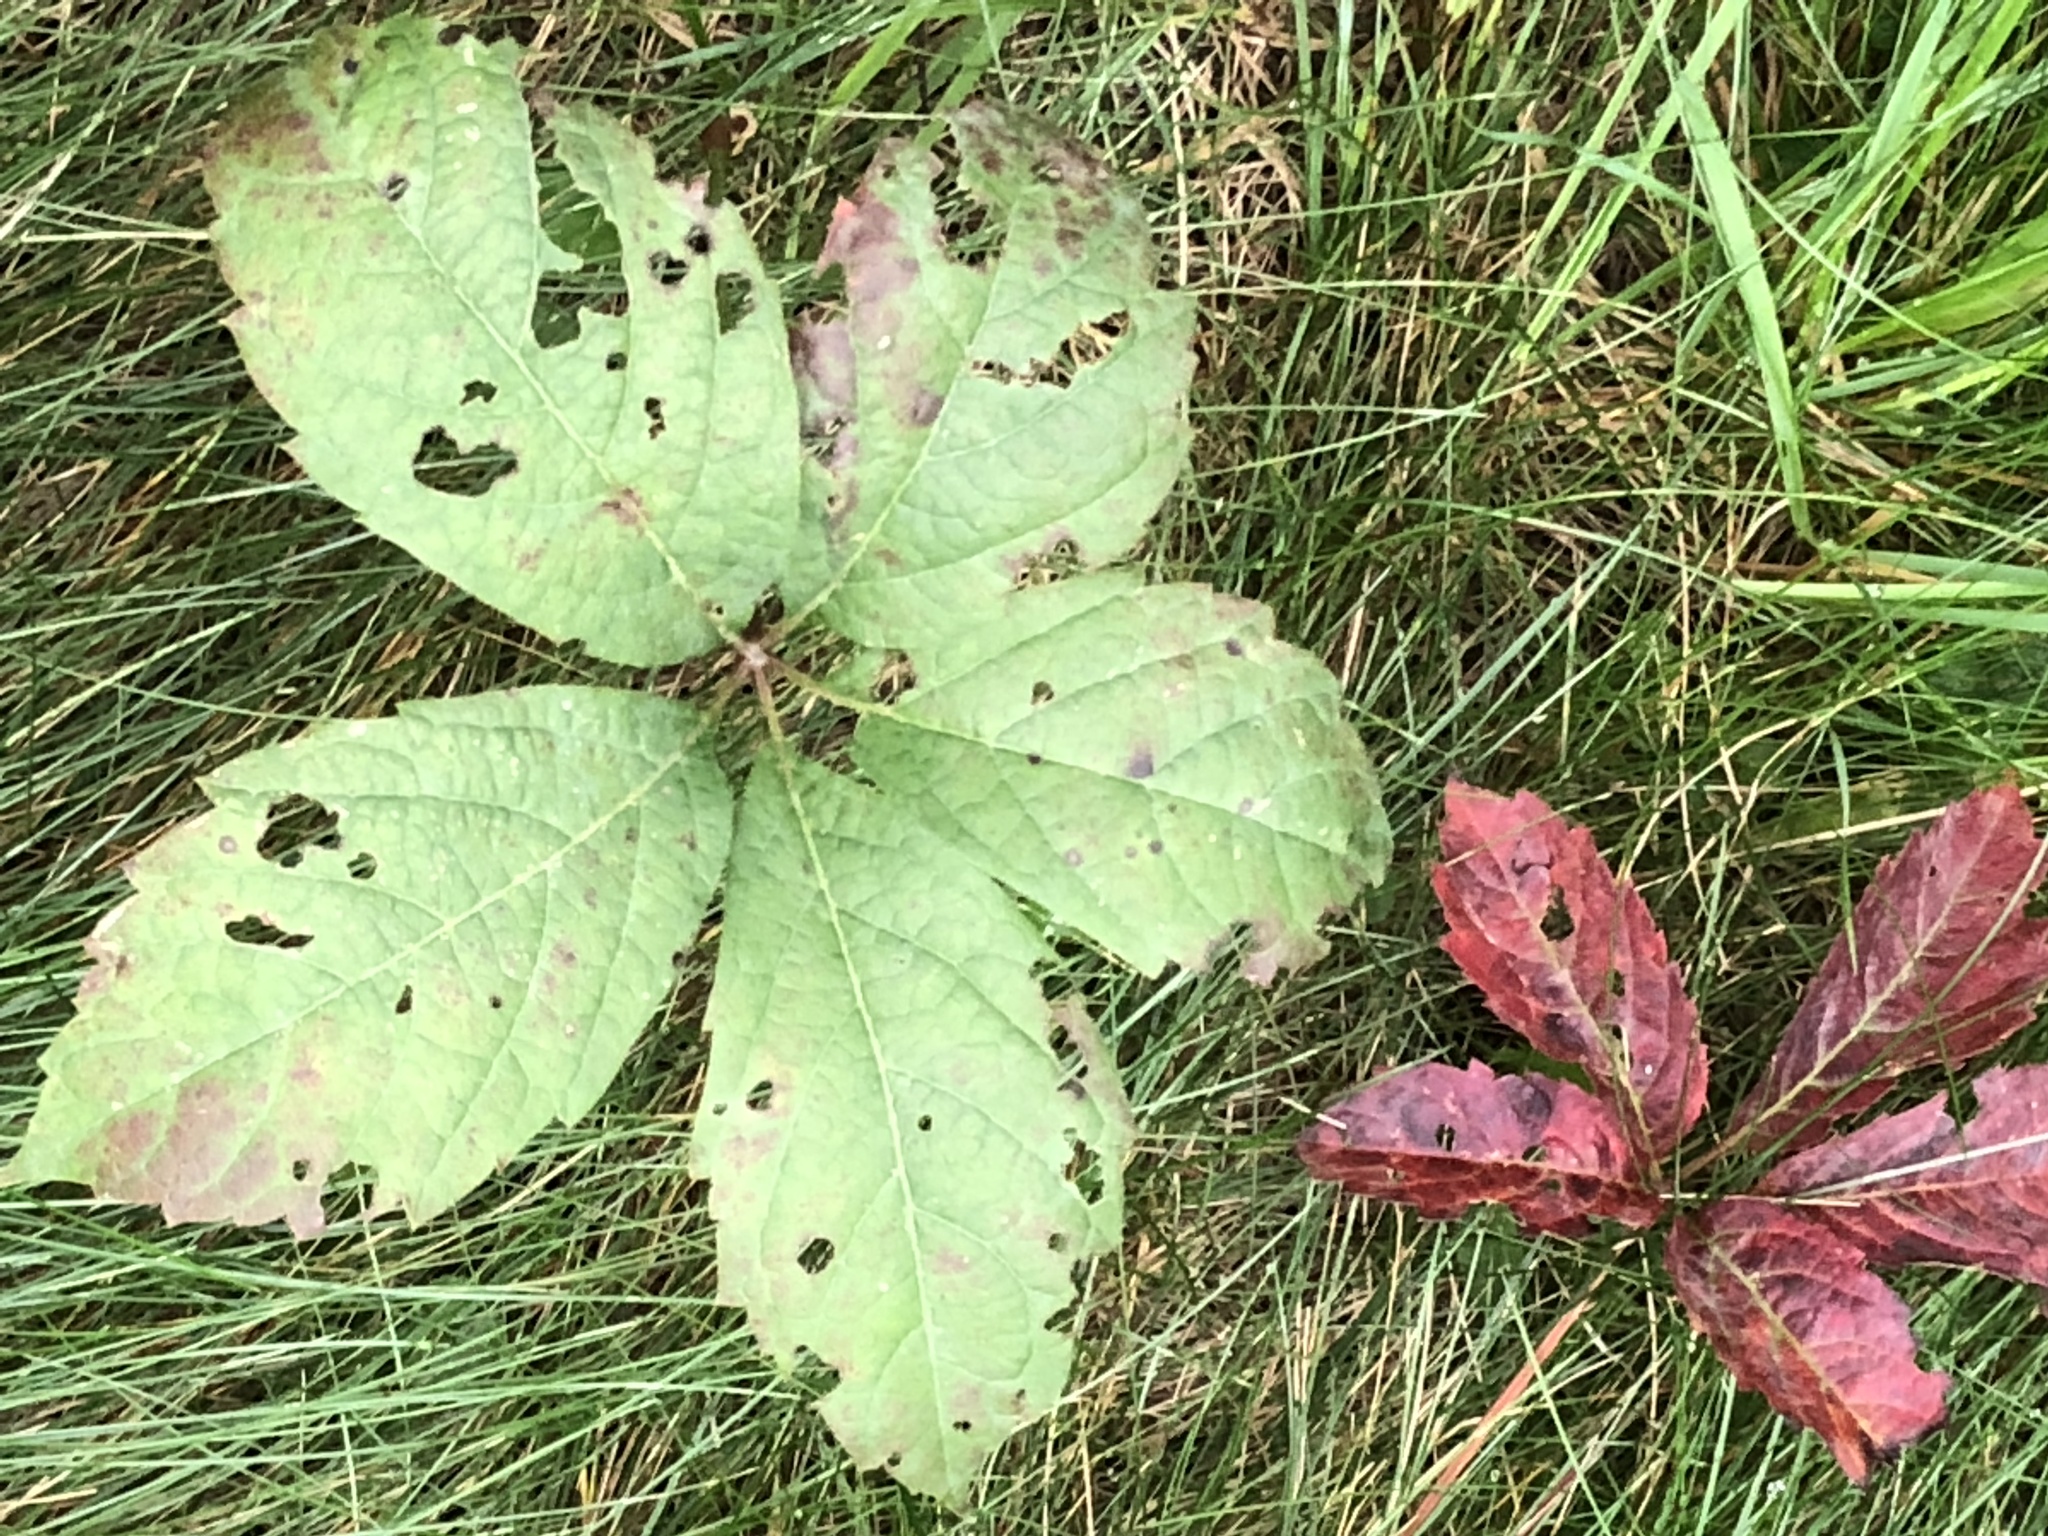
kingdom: Plantae
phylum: Tracheophyta
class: Magnoliopsida
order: Vitales
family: Vitaceae
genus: Parthenocissus
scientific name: Parthenocissus quinquefolia
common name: Virginia-creeper
